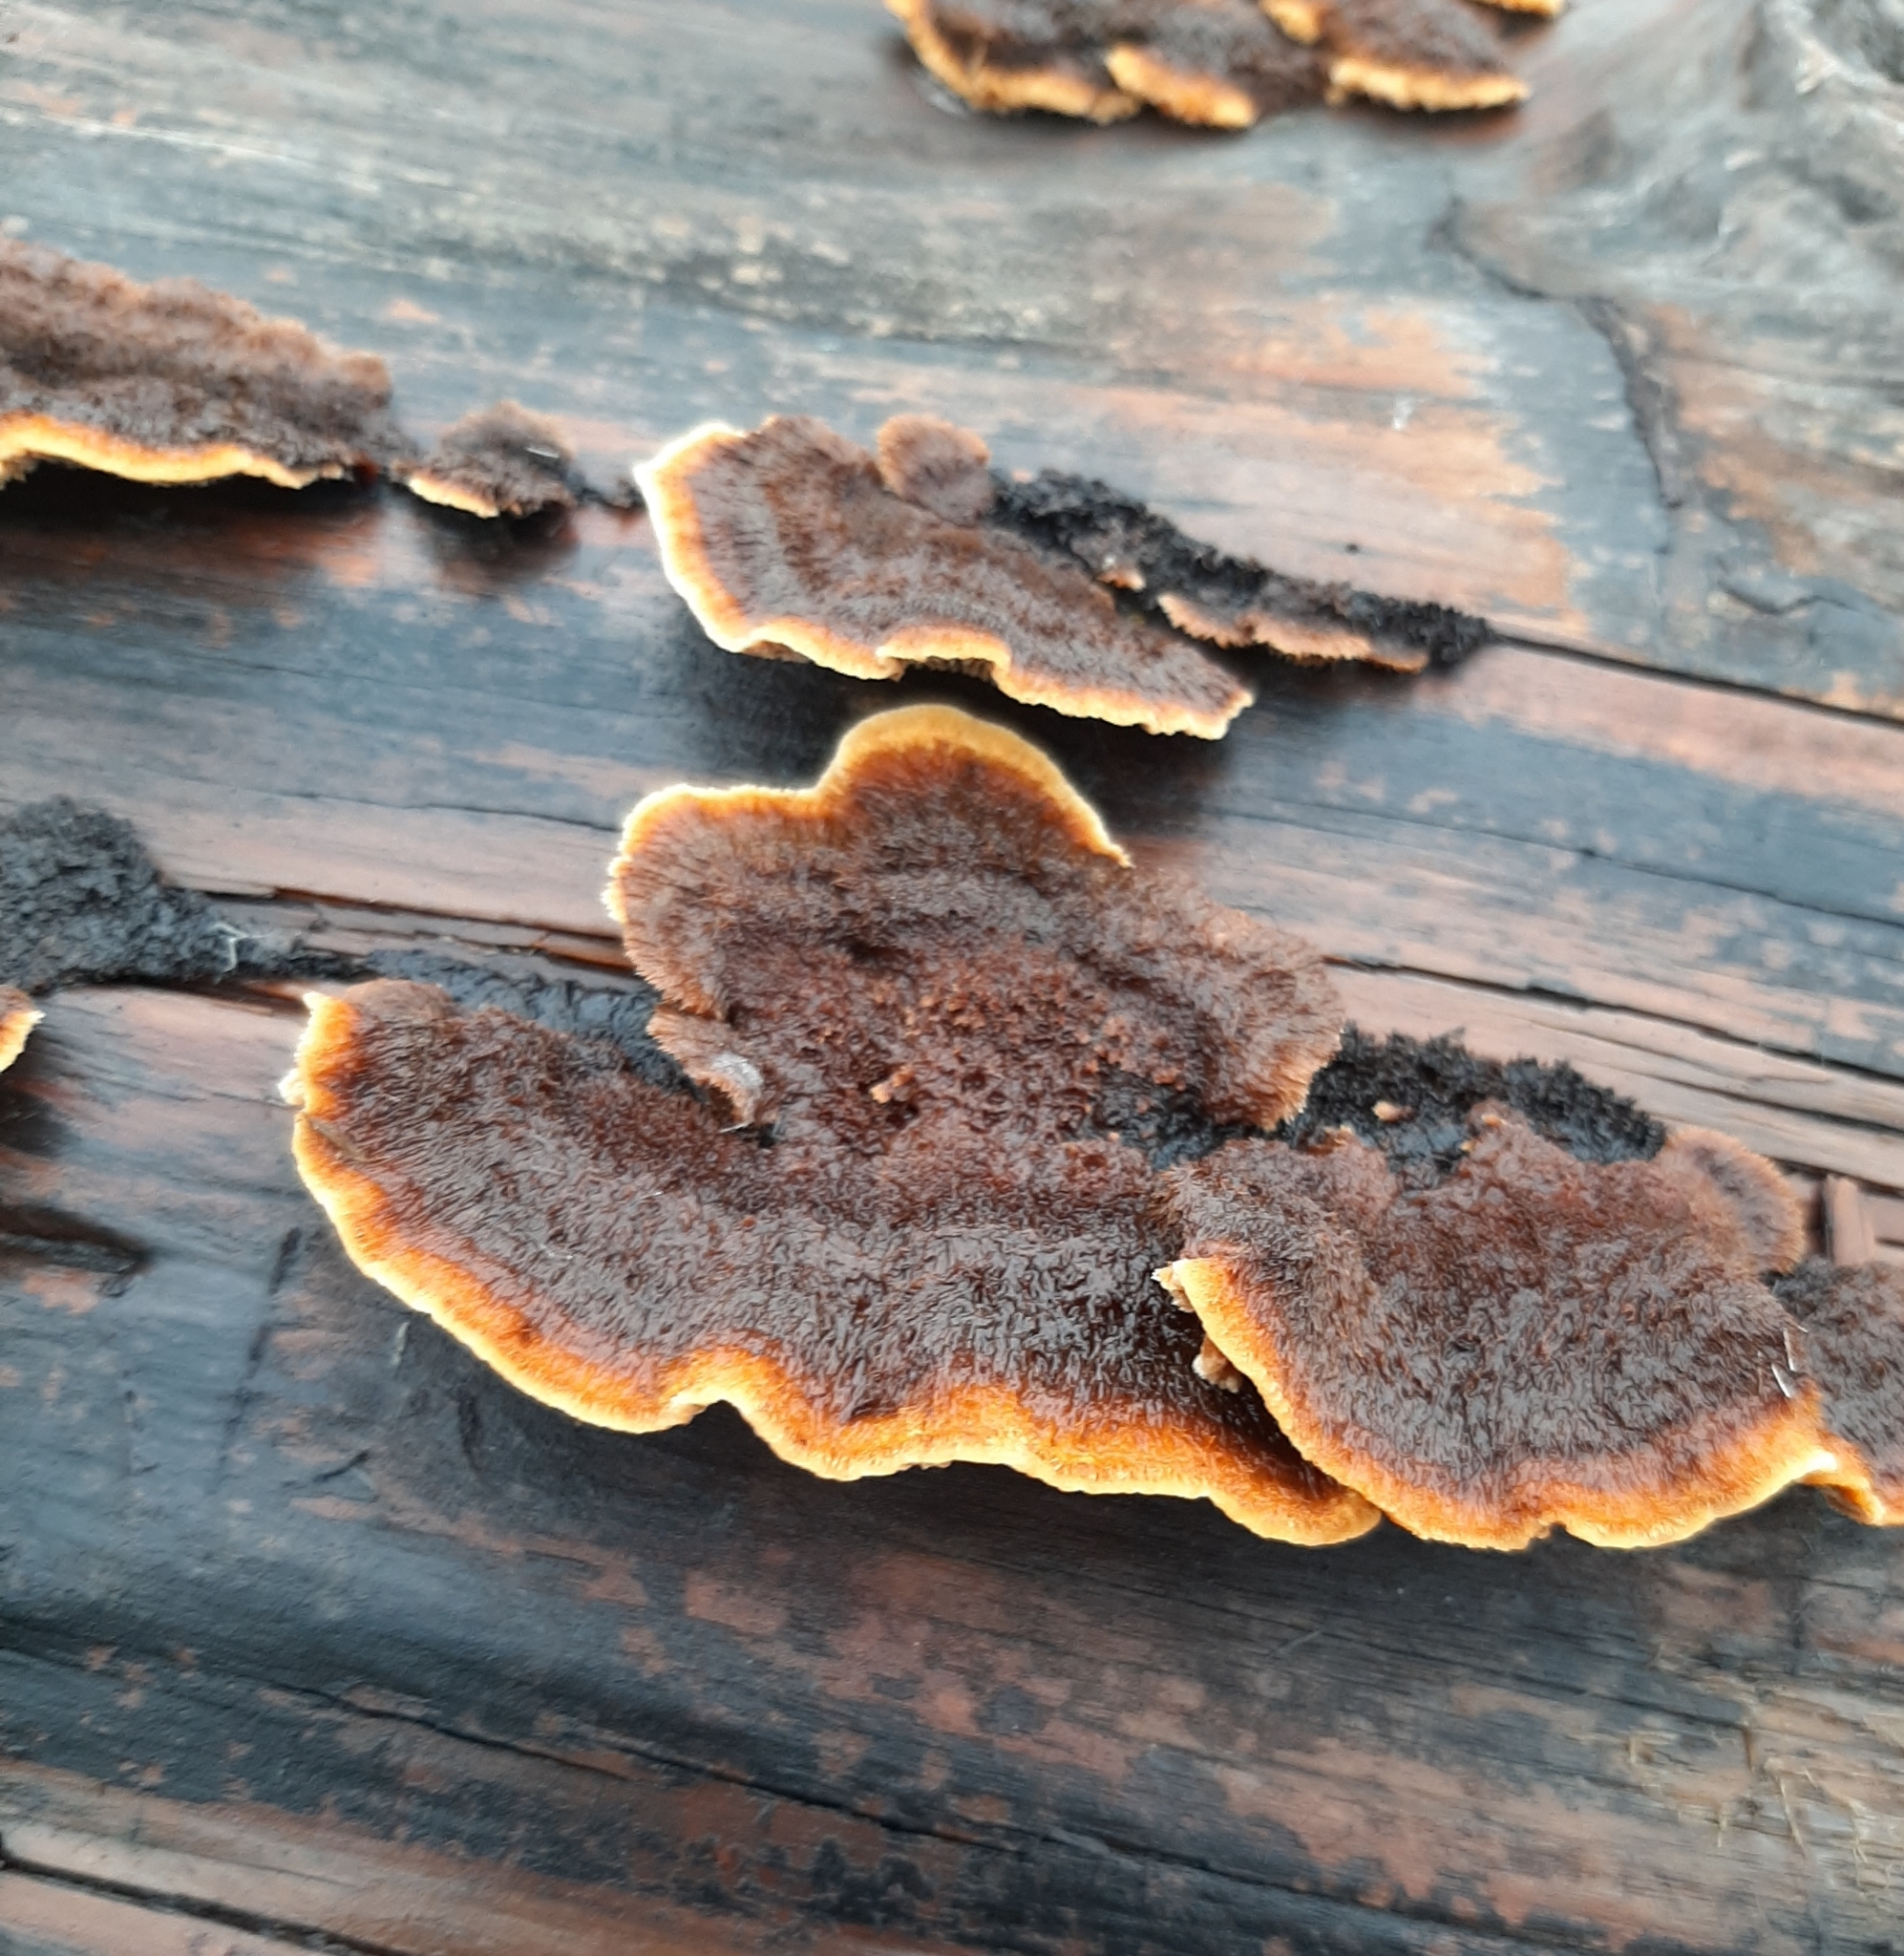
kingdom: Fungi
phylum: Basidiomycota
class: Agaricomycetes
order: Gloeophyllales
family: Gloeophyllaceae
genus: Gloeophyllum
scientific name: Gloeophyllum sepiarium
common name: Conifer mazegill
